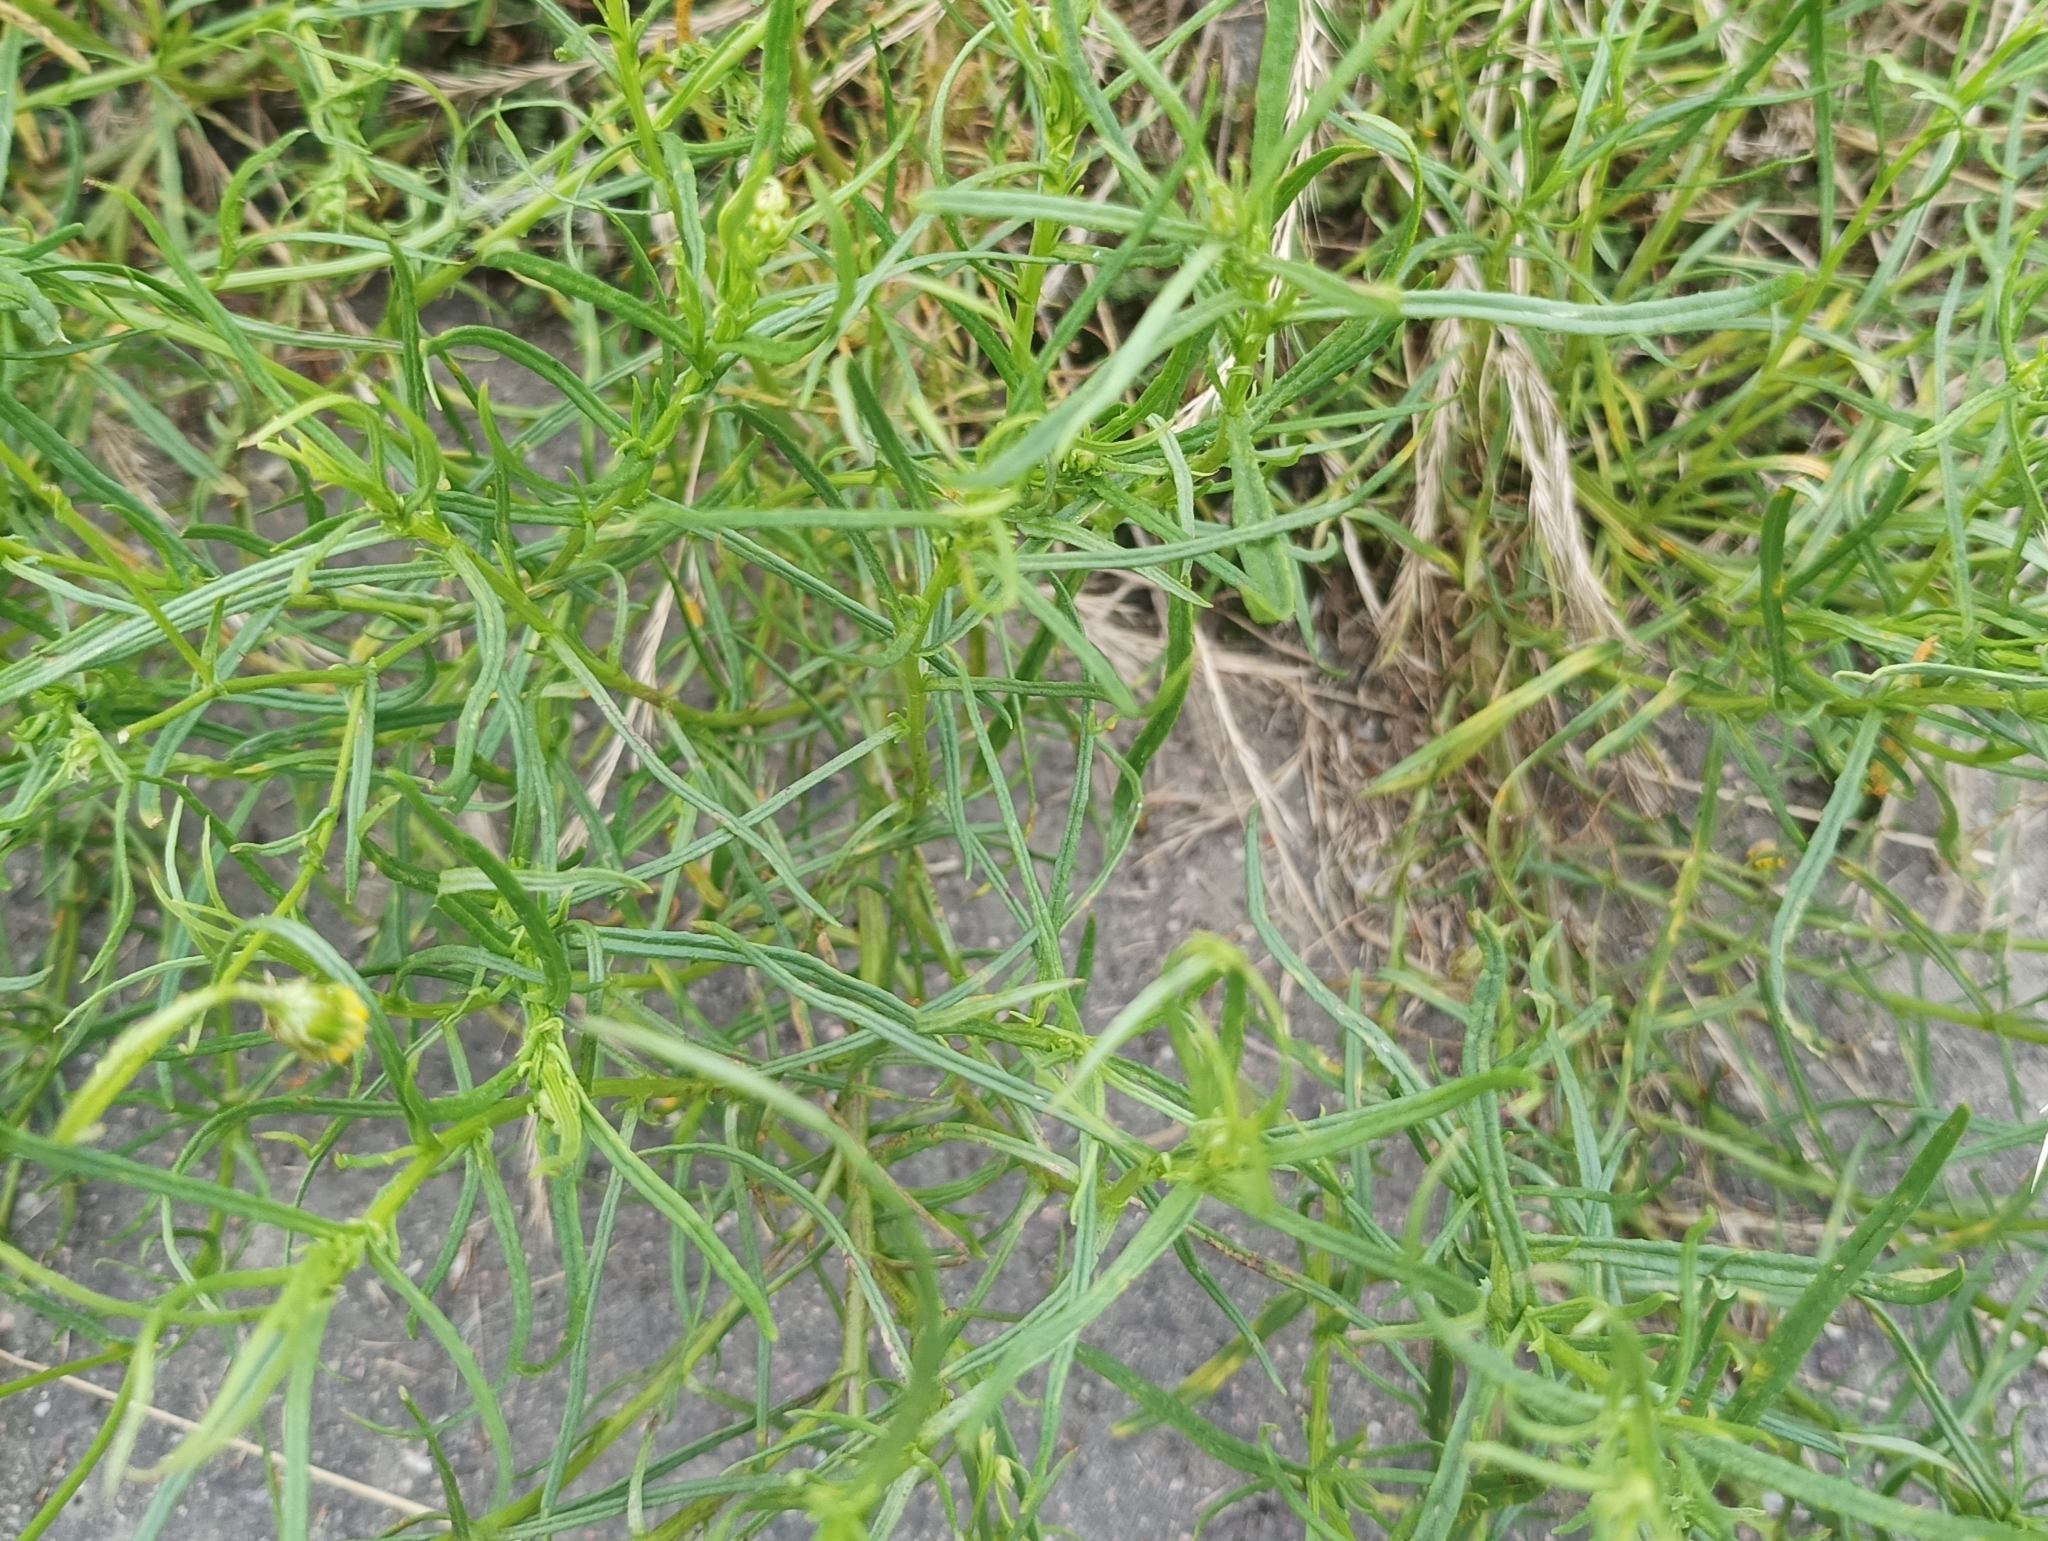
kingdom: Plantae
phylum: Tracheophyta
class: Magnoliopsida
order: Asterales
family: Asteraceae
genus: Senecio
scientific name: Senecio inaequidens
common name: Narrow-leaved ragwort
